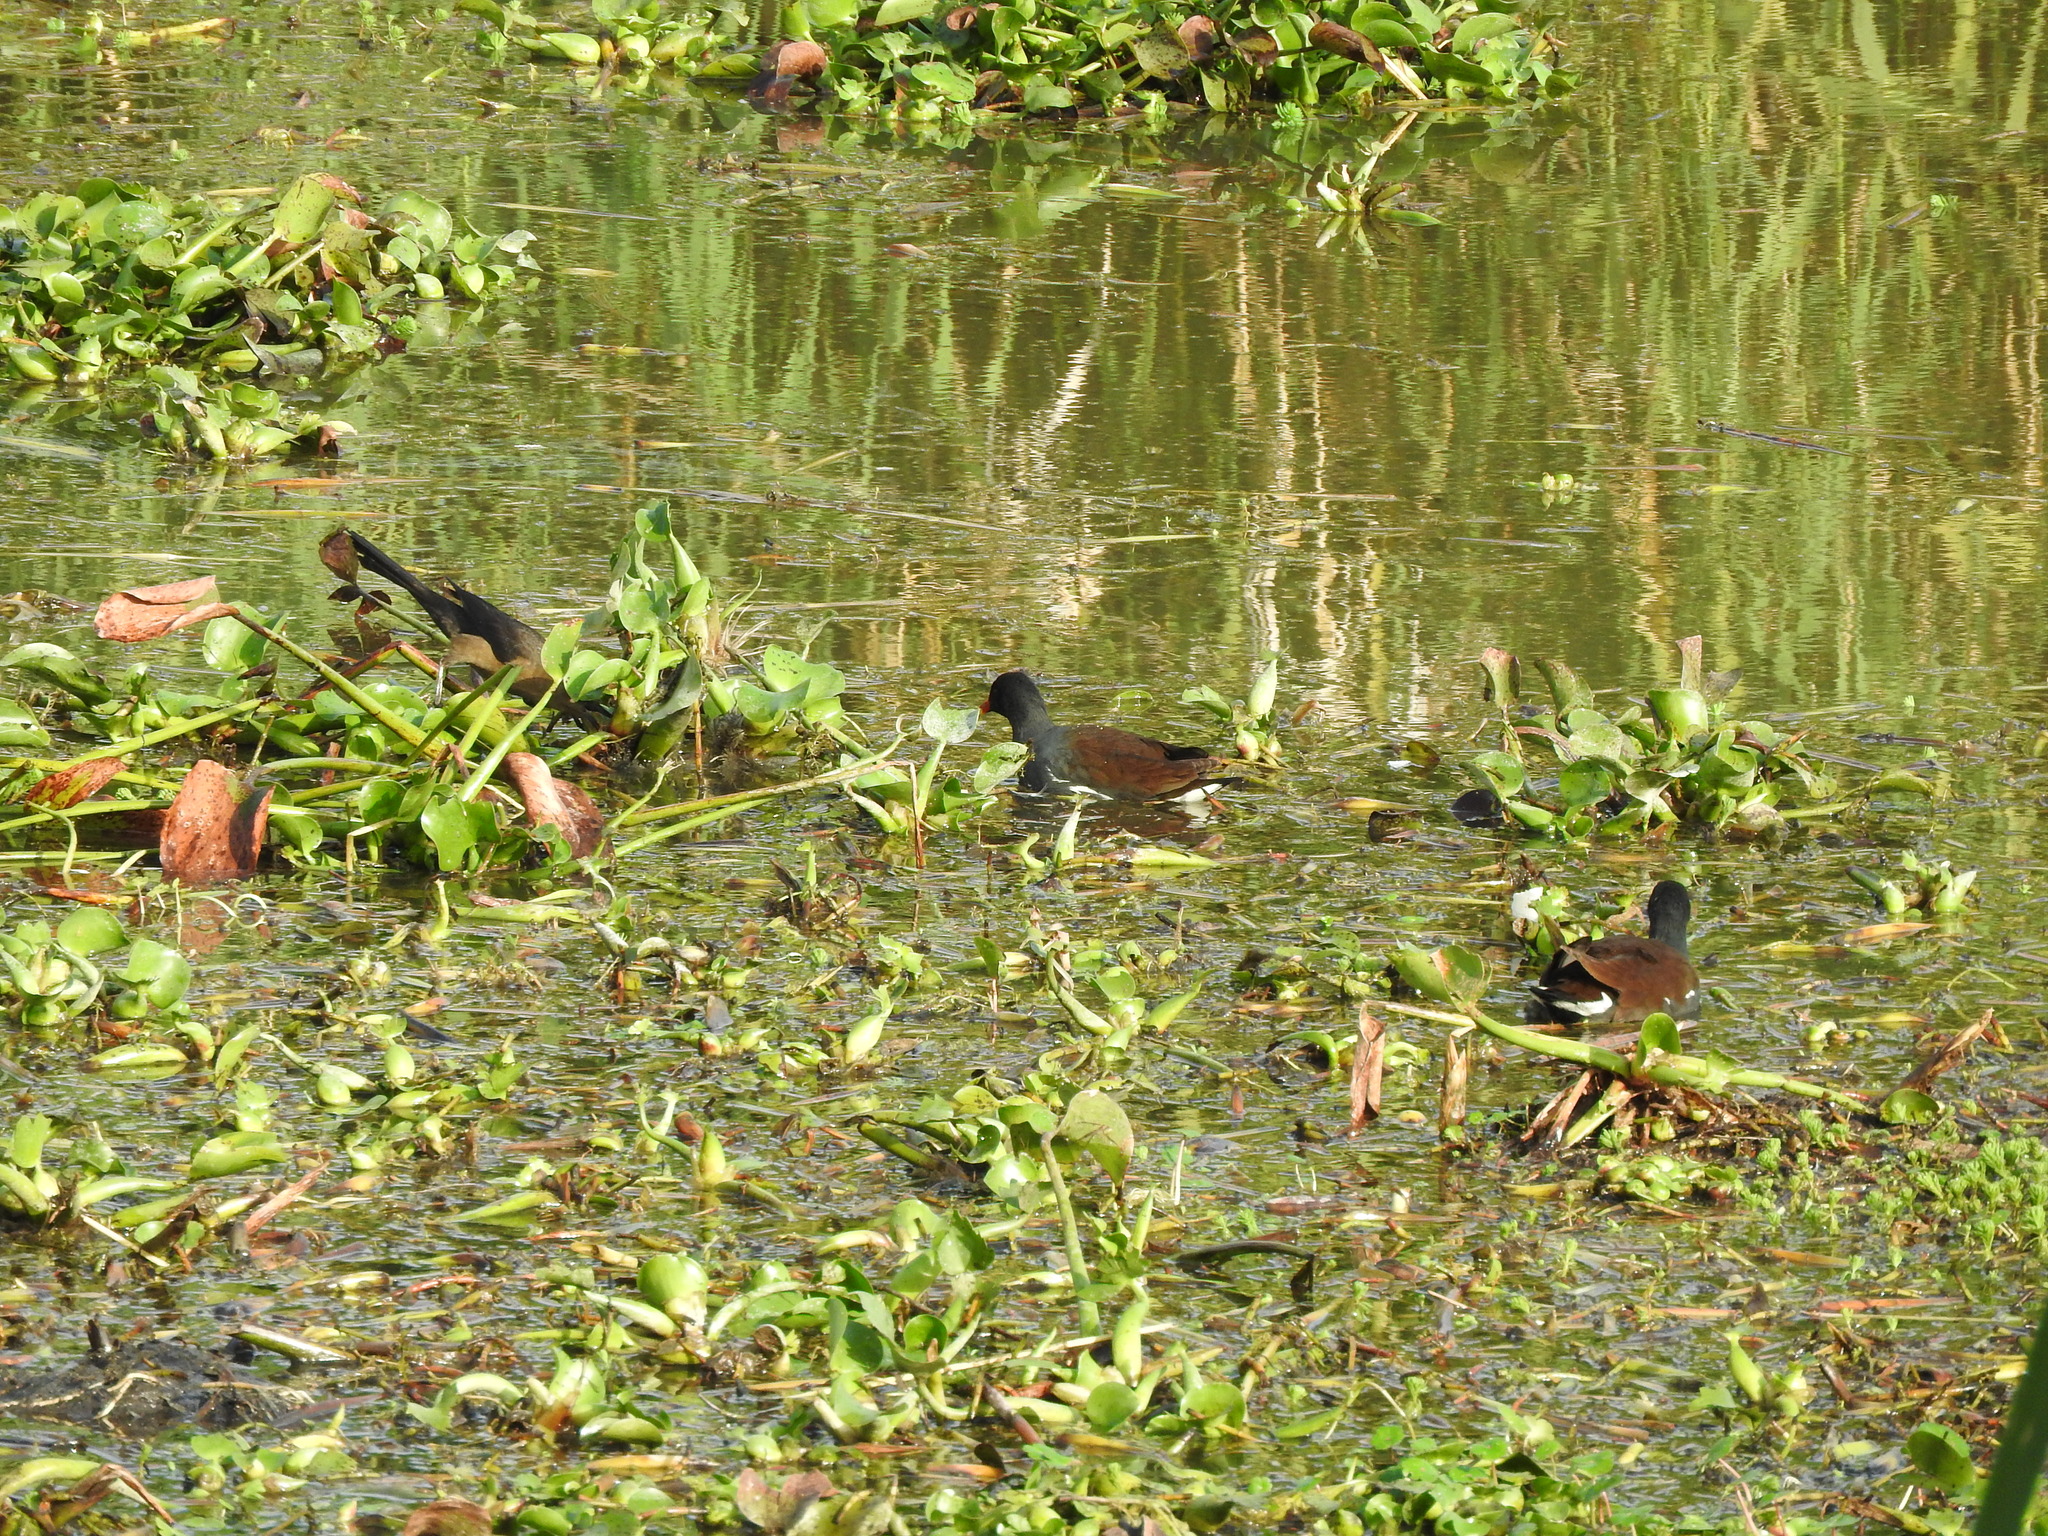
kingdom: Animalia
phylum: Chordata
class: Aves
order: Gruiformes
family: Rallidae
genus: Gallinula
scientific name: Gallinula chloropus
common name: Common moorhen
